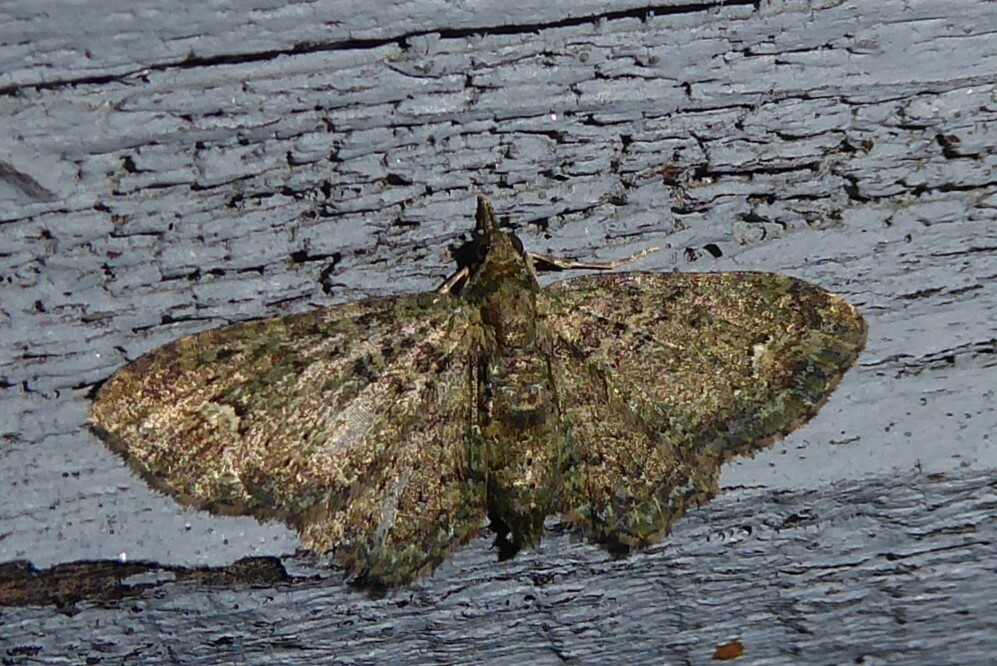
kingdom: Animalia
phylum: Arthropoda
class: Insecta
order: Lepidoptera
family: Geometridae
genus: Pasiphilodes
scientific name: Pasiphilodes testulata
